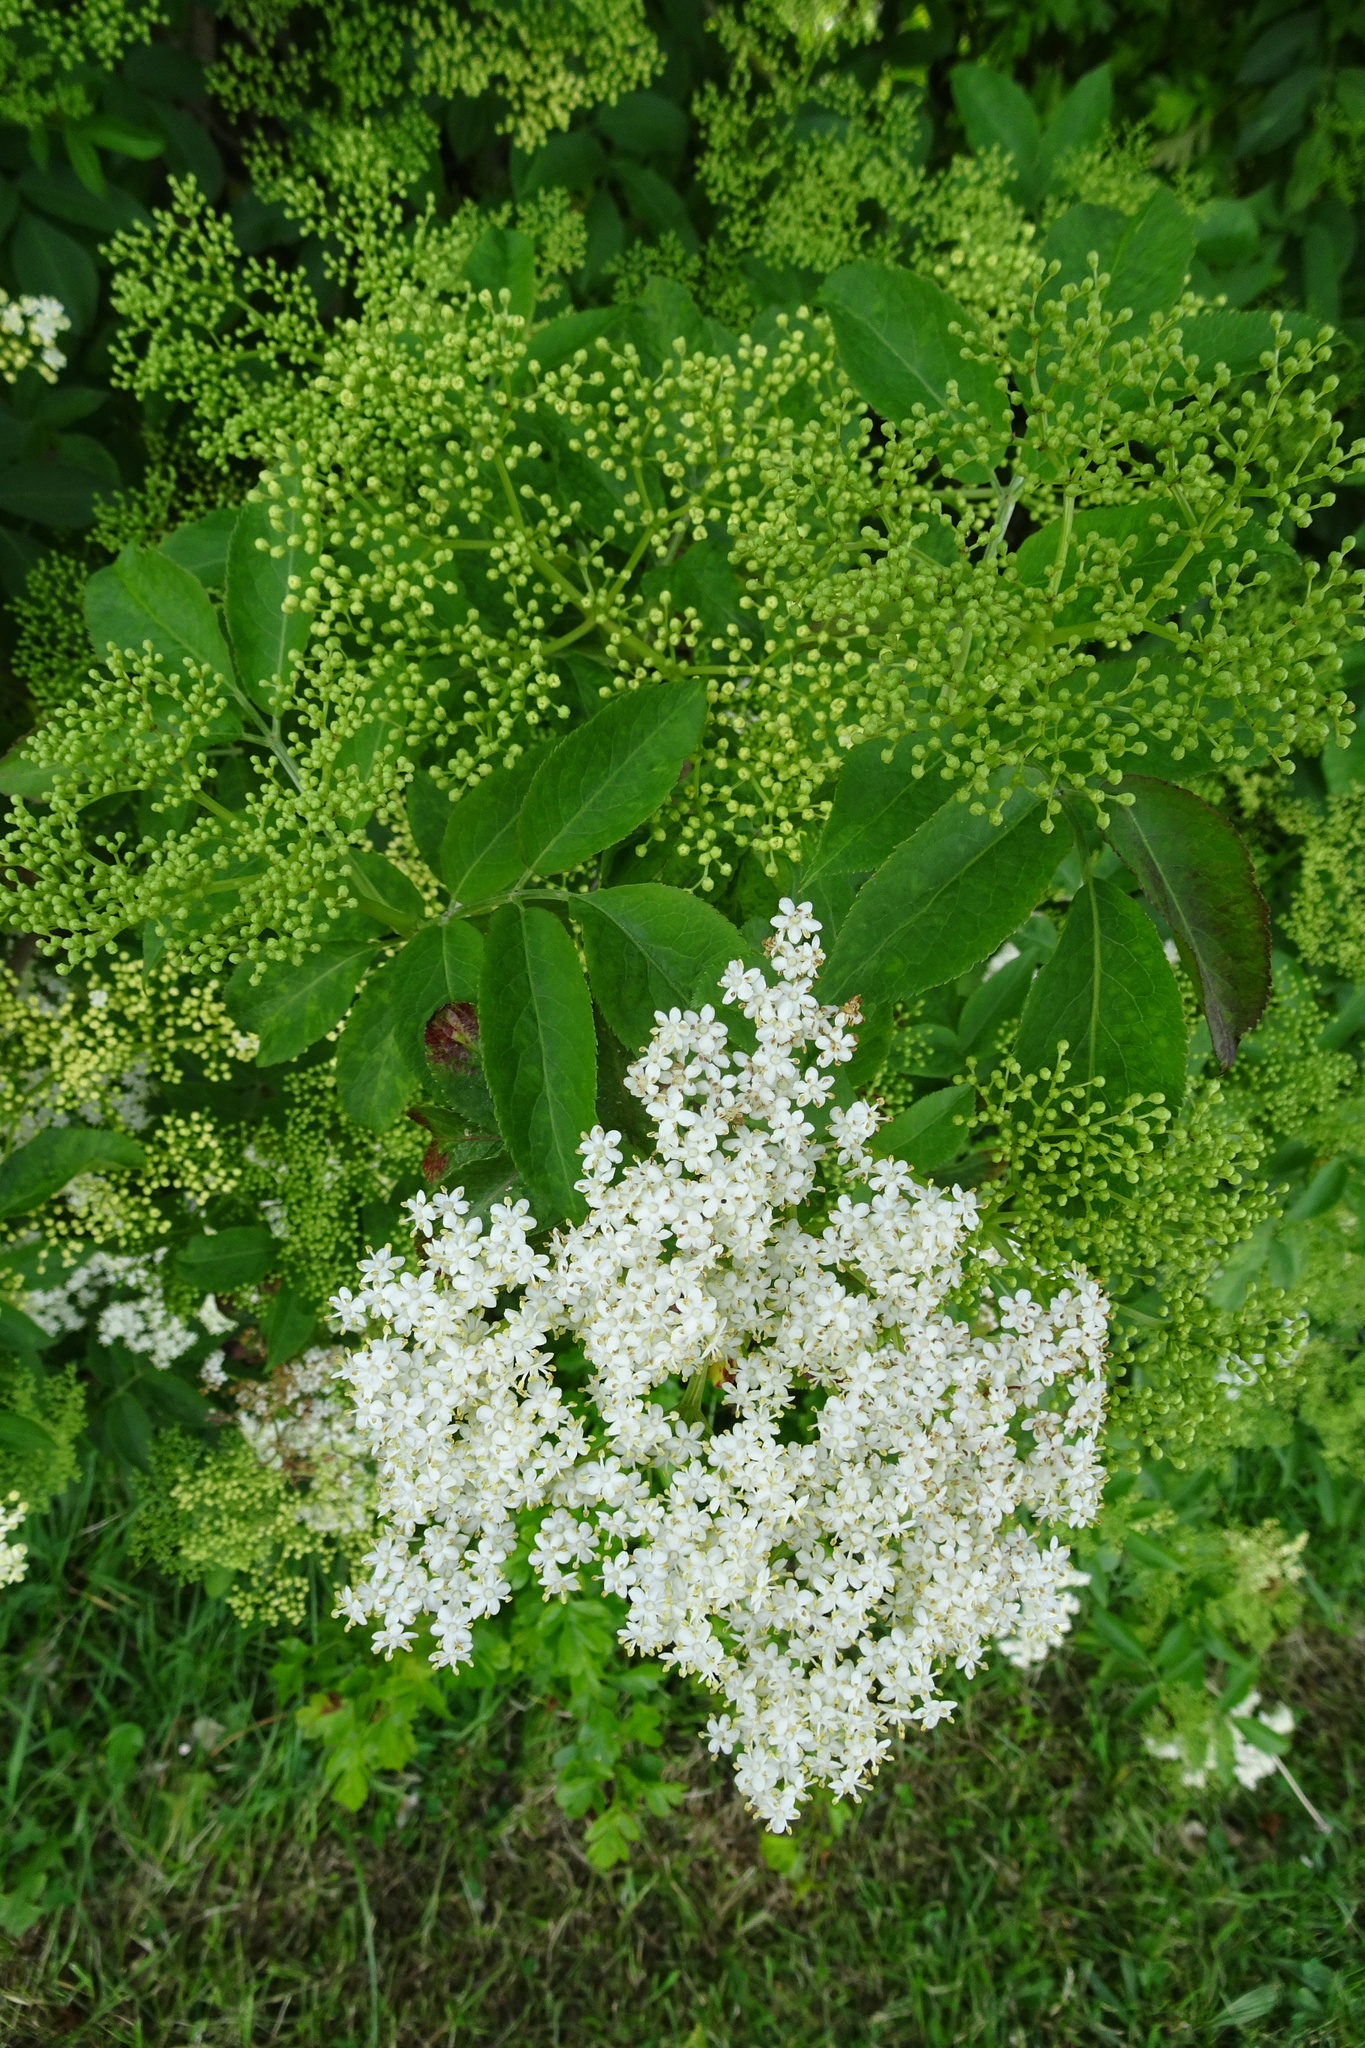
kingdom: Plantae
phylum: Tracheophyta
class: Magnoliopsida
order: Dipsacales
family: Viburnaceae
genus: Sambucus
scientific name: Sambucus nigra
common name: Elder
